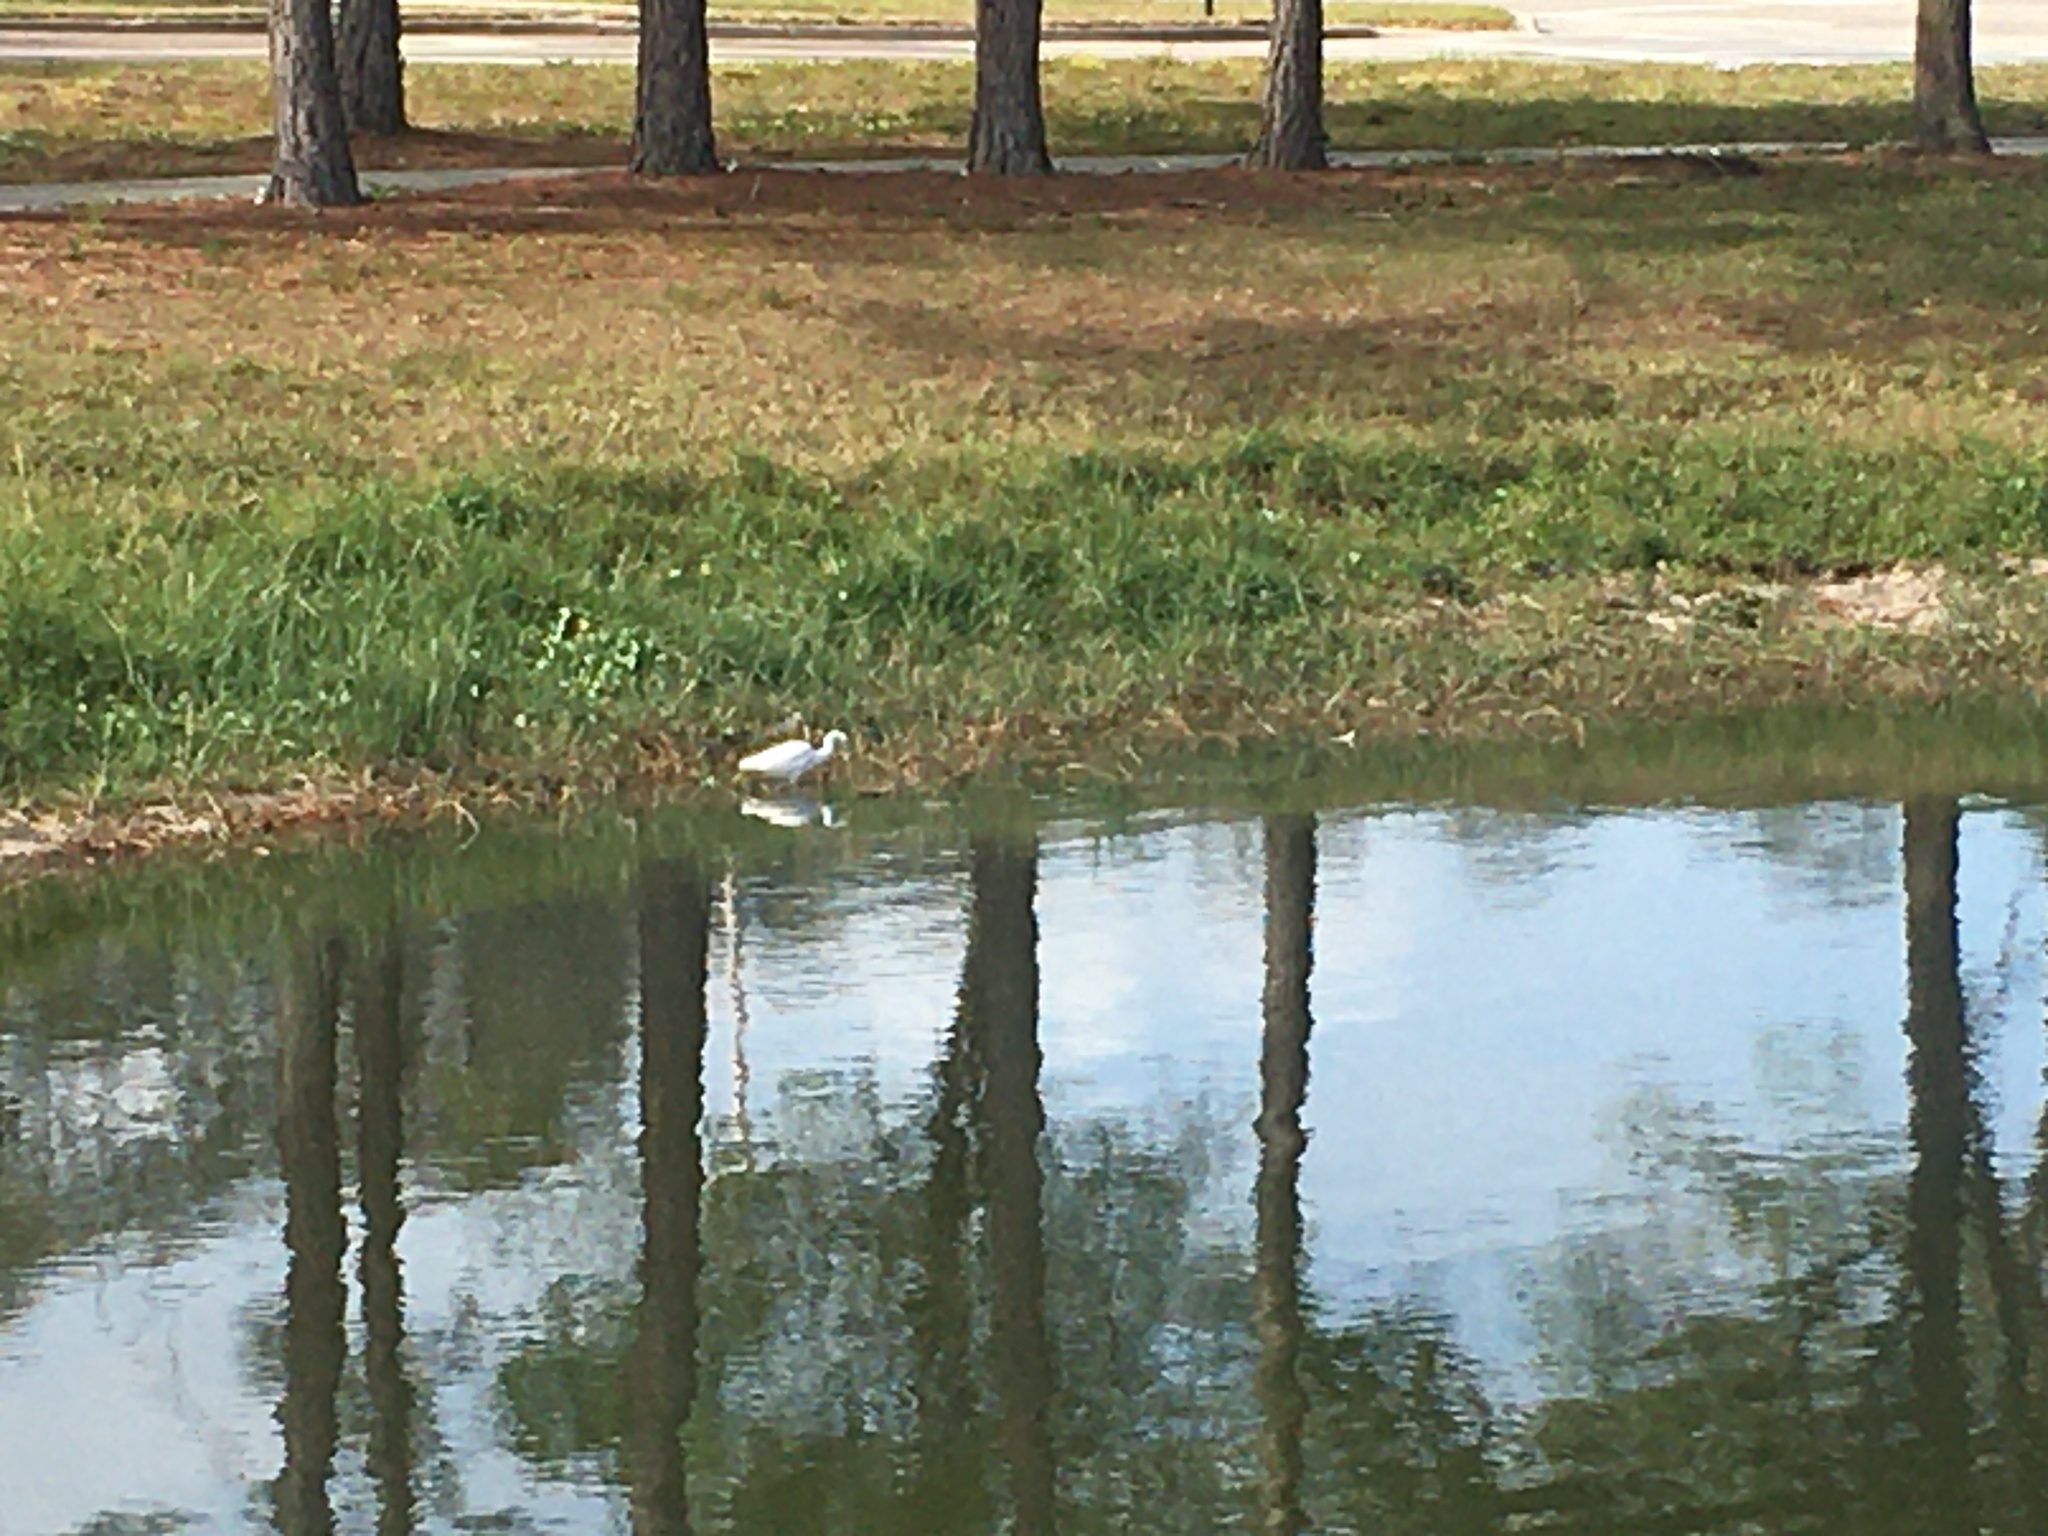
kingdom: Animalia
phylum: Chordata
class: Aves
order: Pelecaniformes
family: Ardeidae
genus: Egretta
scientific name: Egretta thula
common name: Snowy egret
